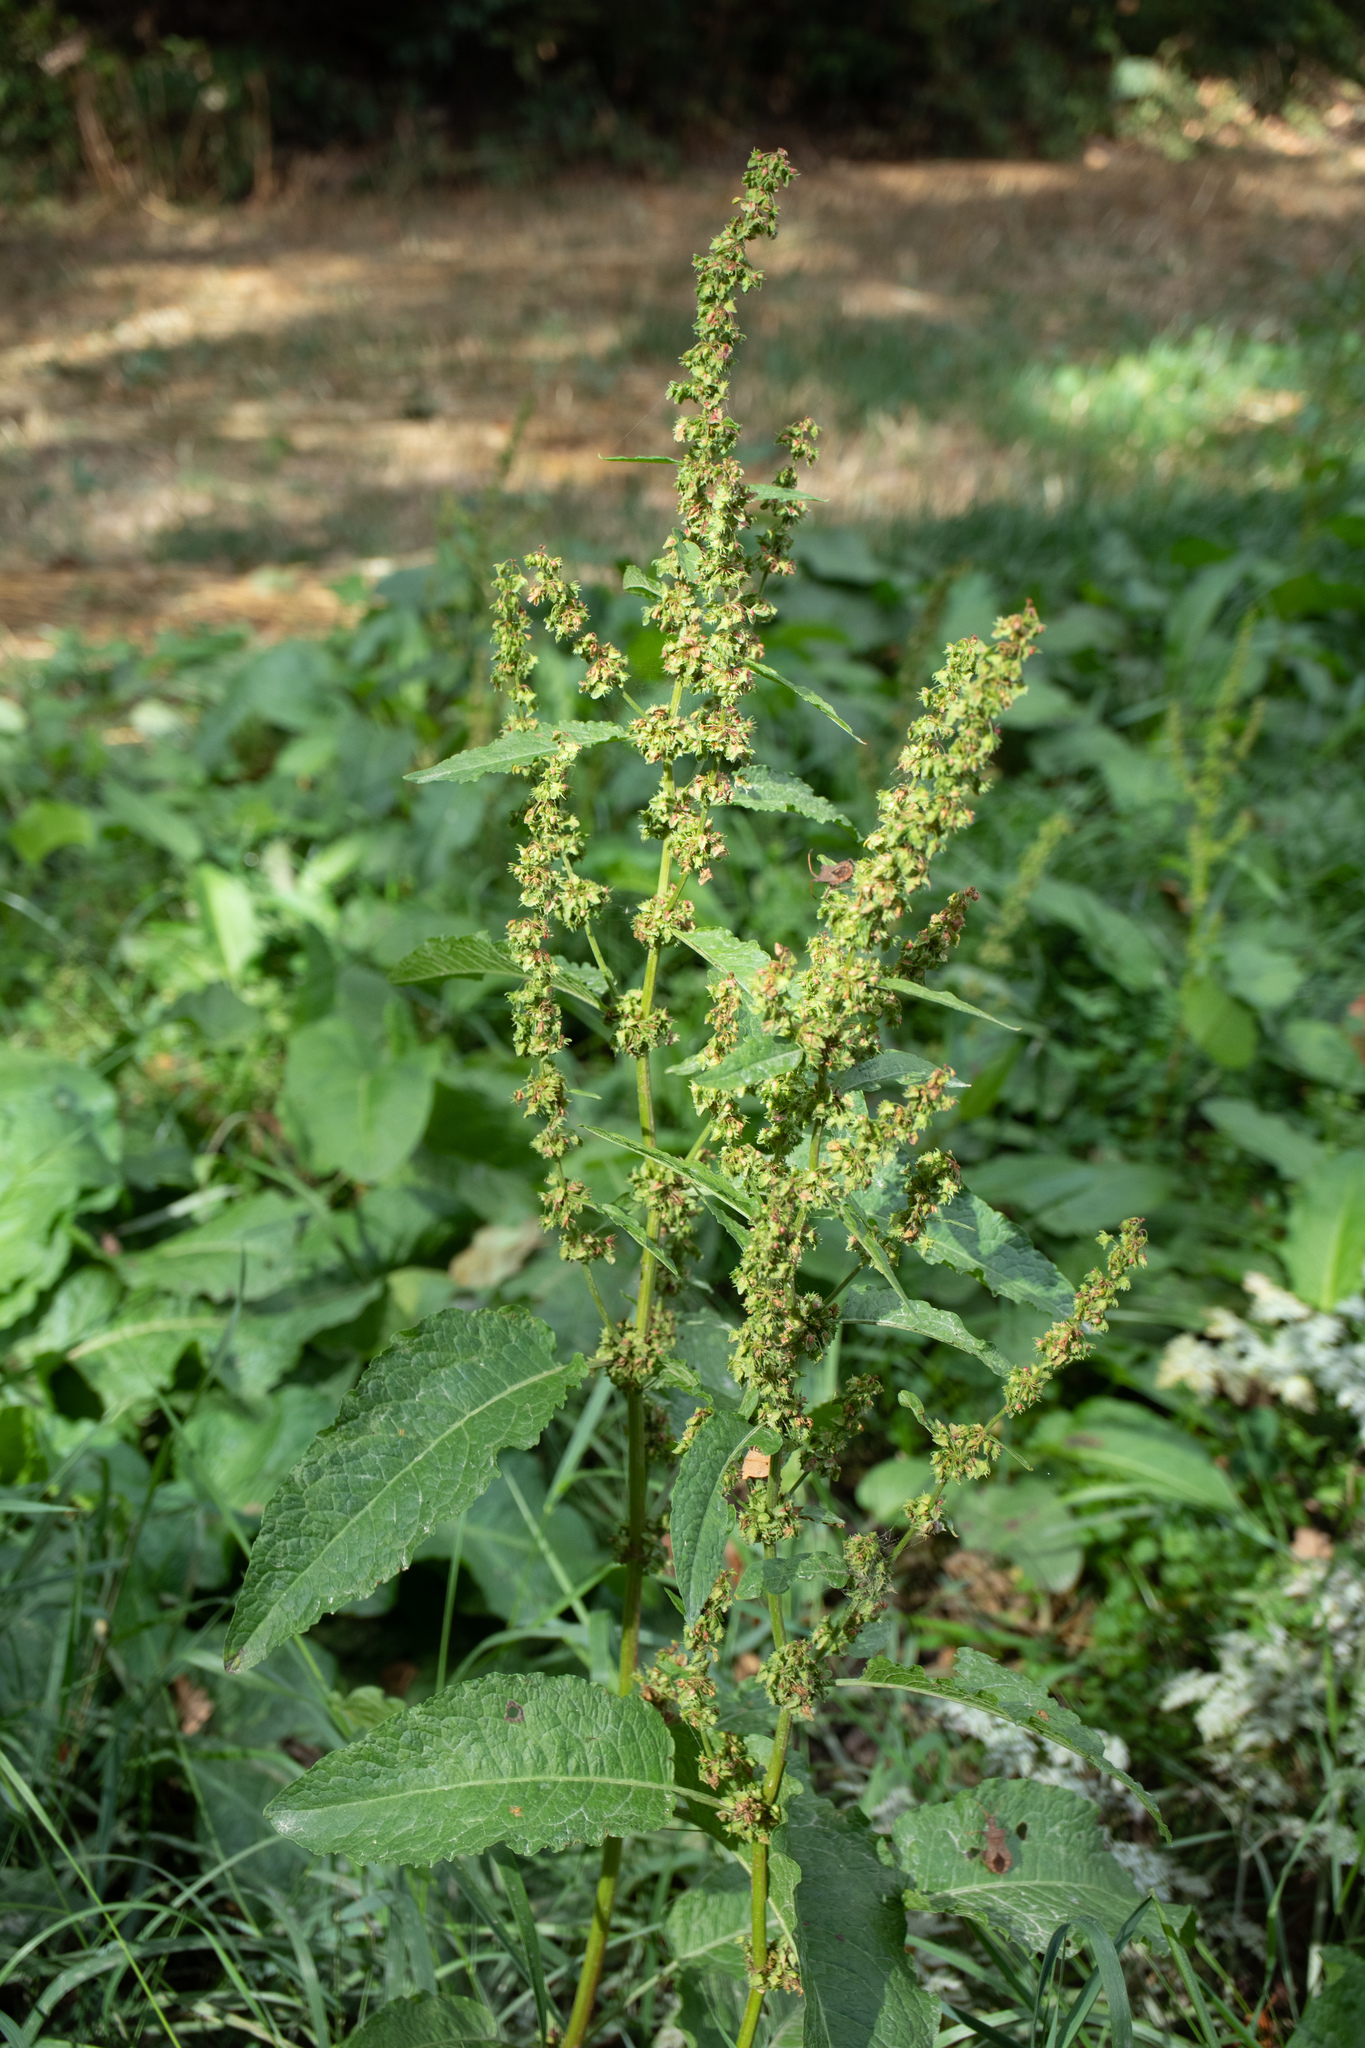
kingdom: Plantae
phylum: Tracheophyta
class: Magnoliopsida
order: Caryophyllales
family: Polygonaceae
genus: Rumex
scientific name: Rumex obtusifolius
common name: Bitter dock
